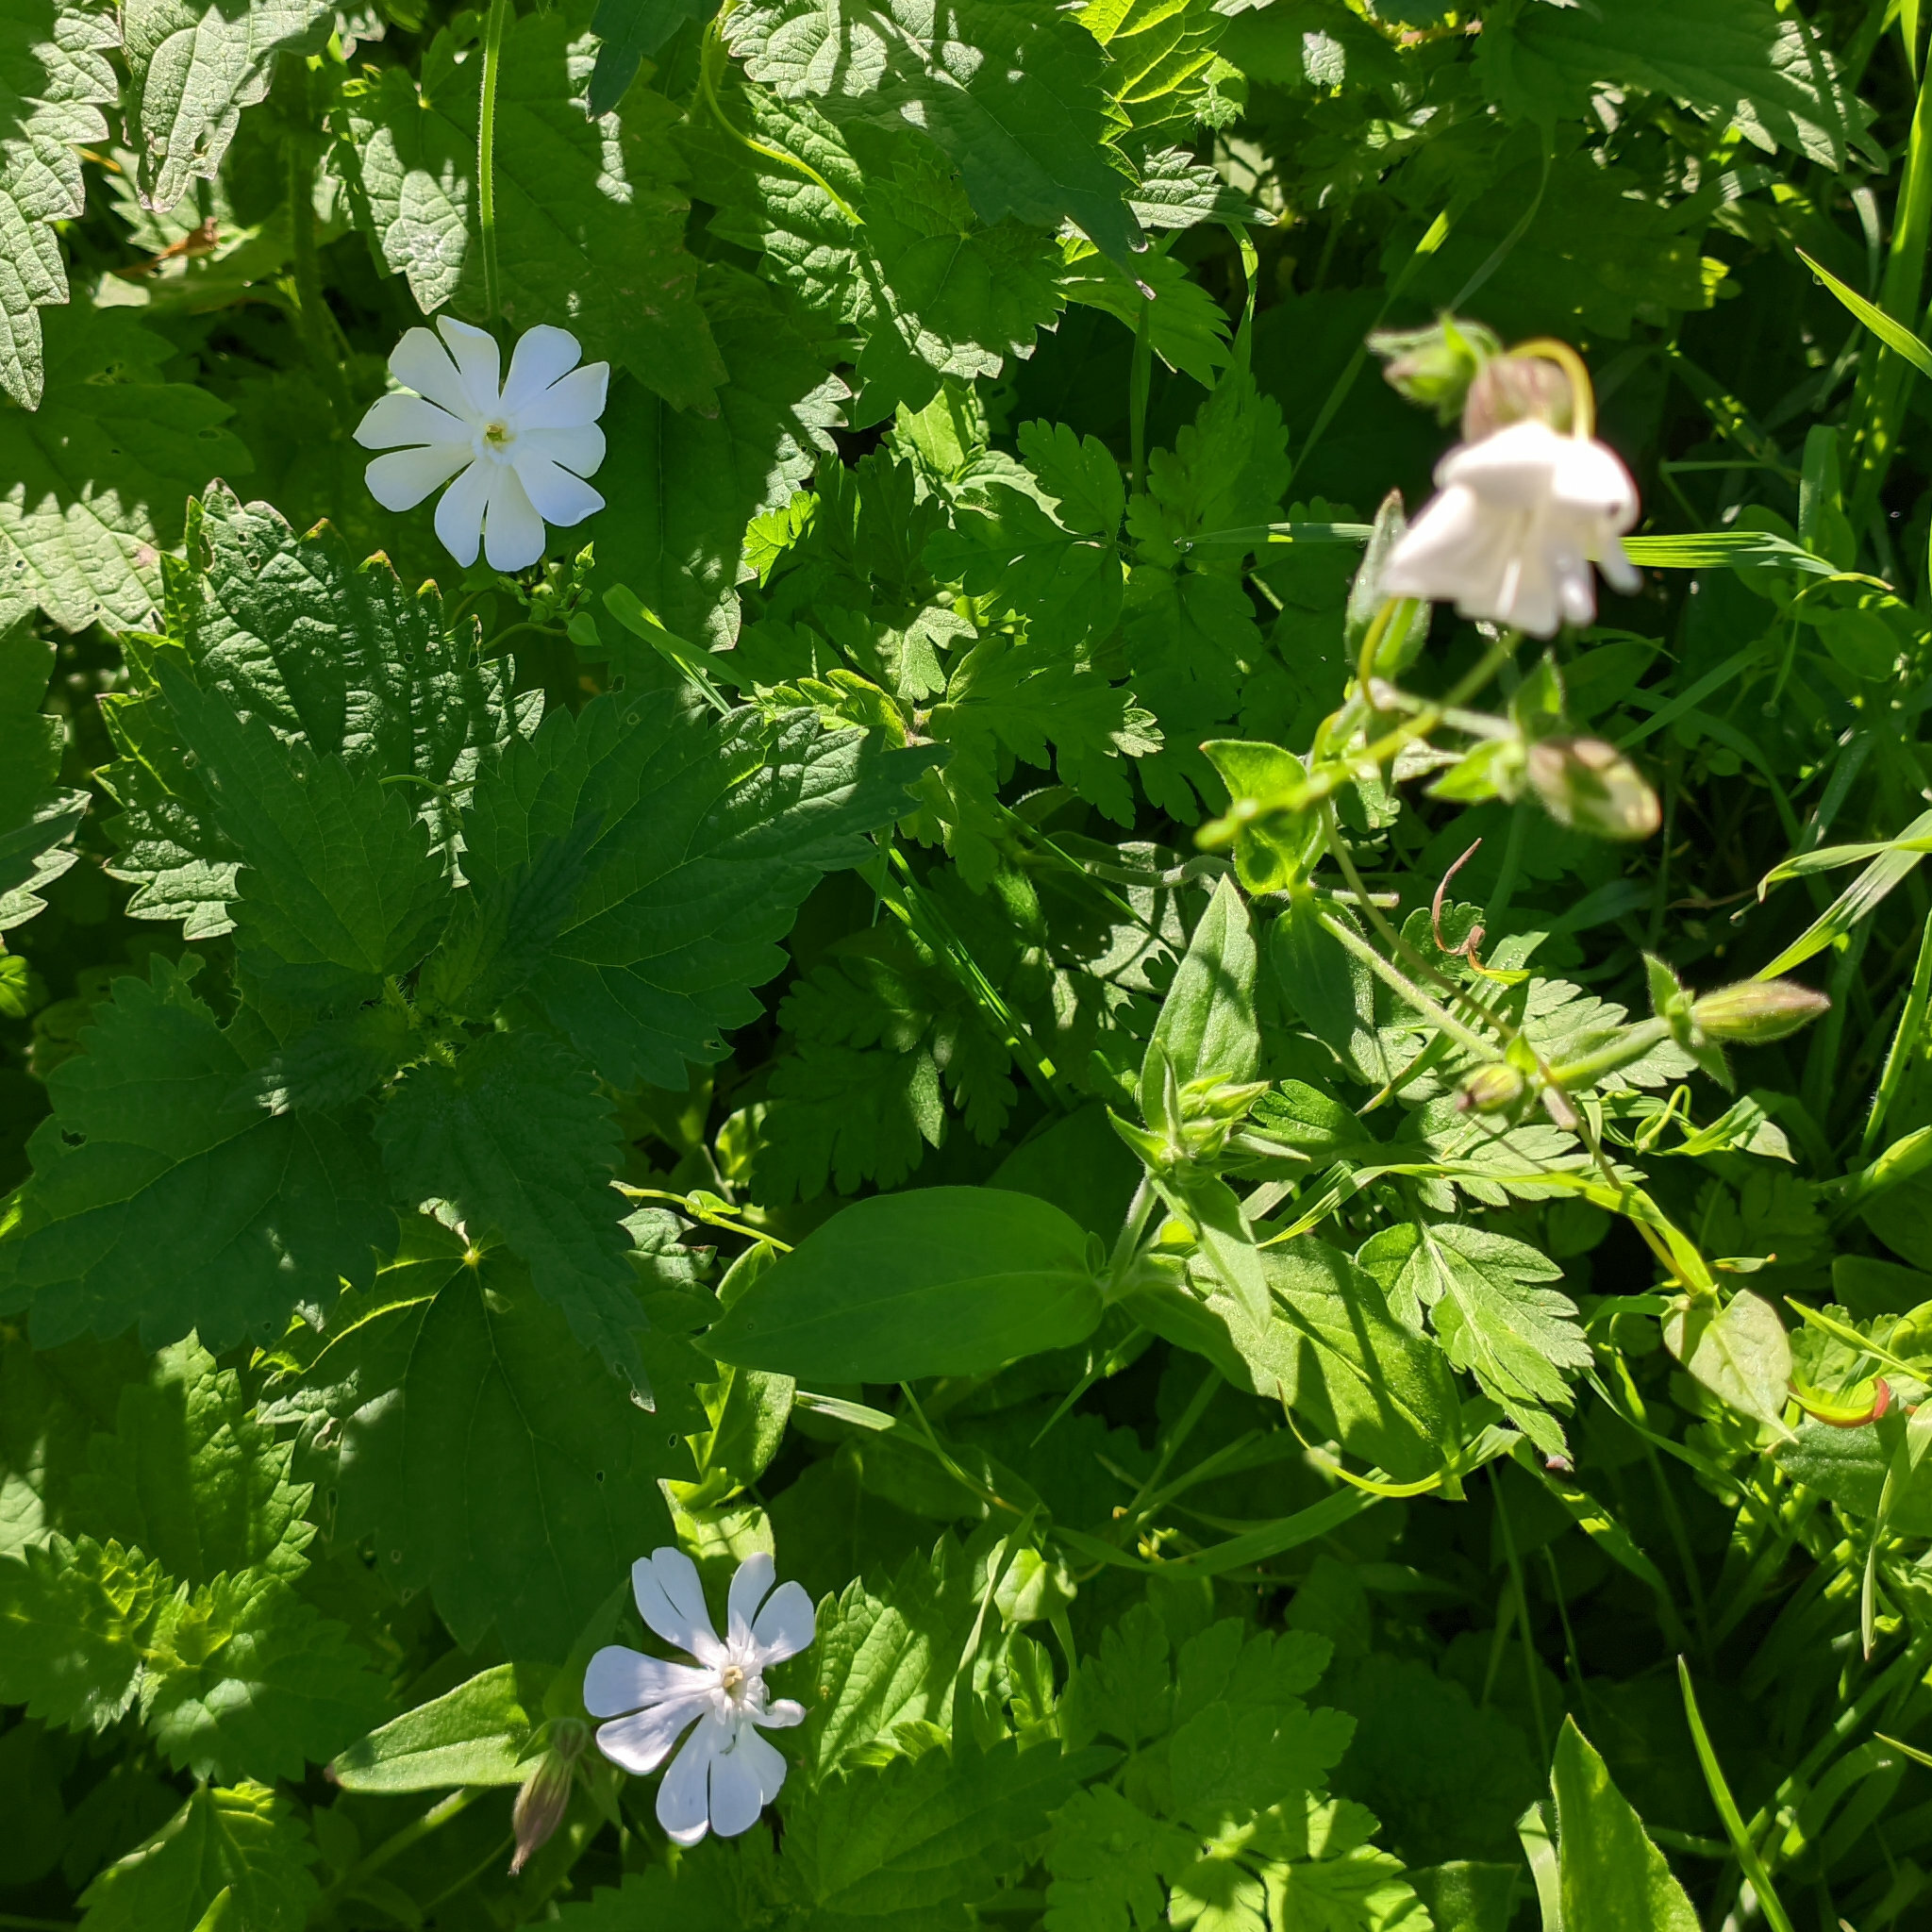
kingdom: Plantae
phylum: Tracheophyta
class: Magnoliopsida
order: Caryophyllales
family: Caryophyllaceae
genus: Silene
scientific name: Silene latifolia
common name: White campion
